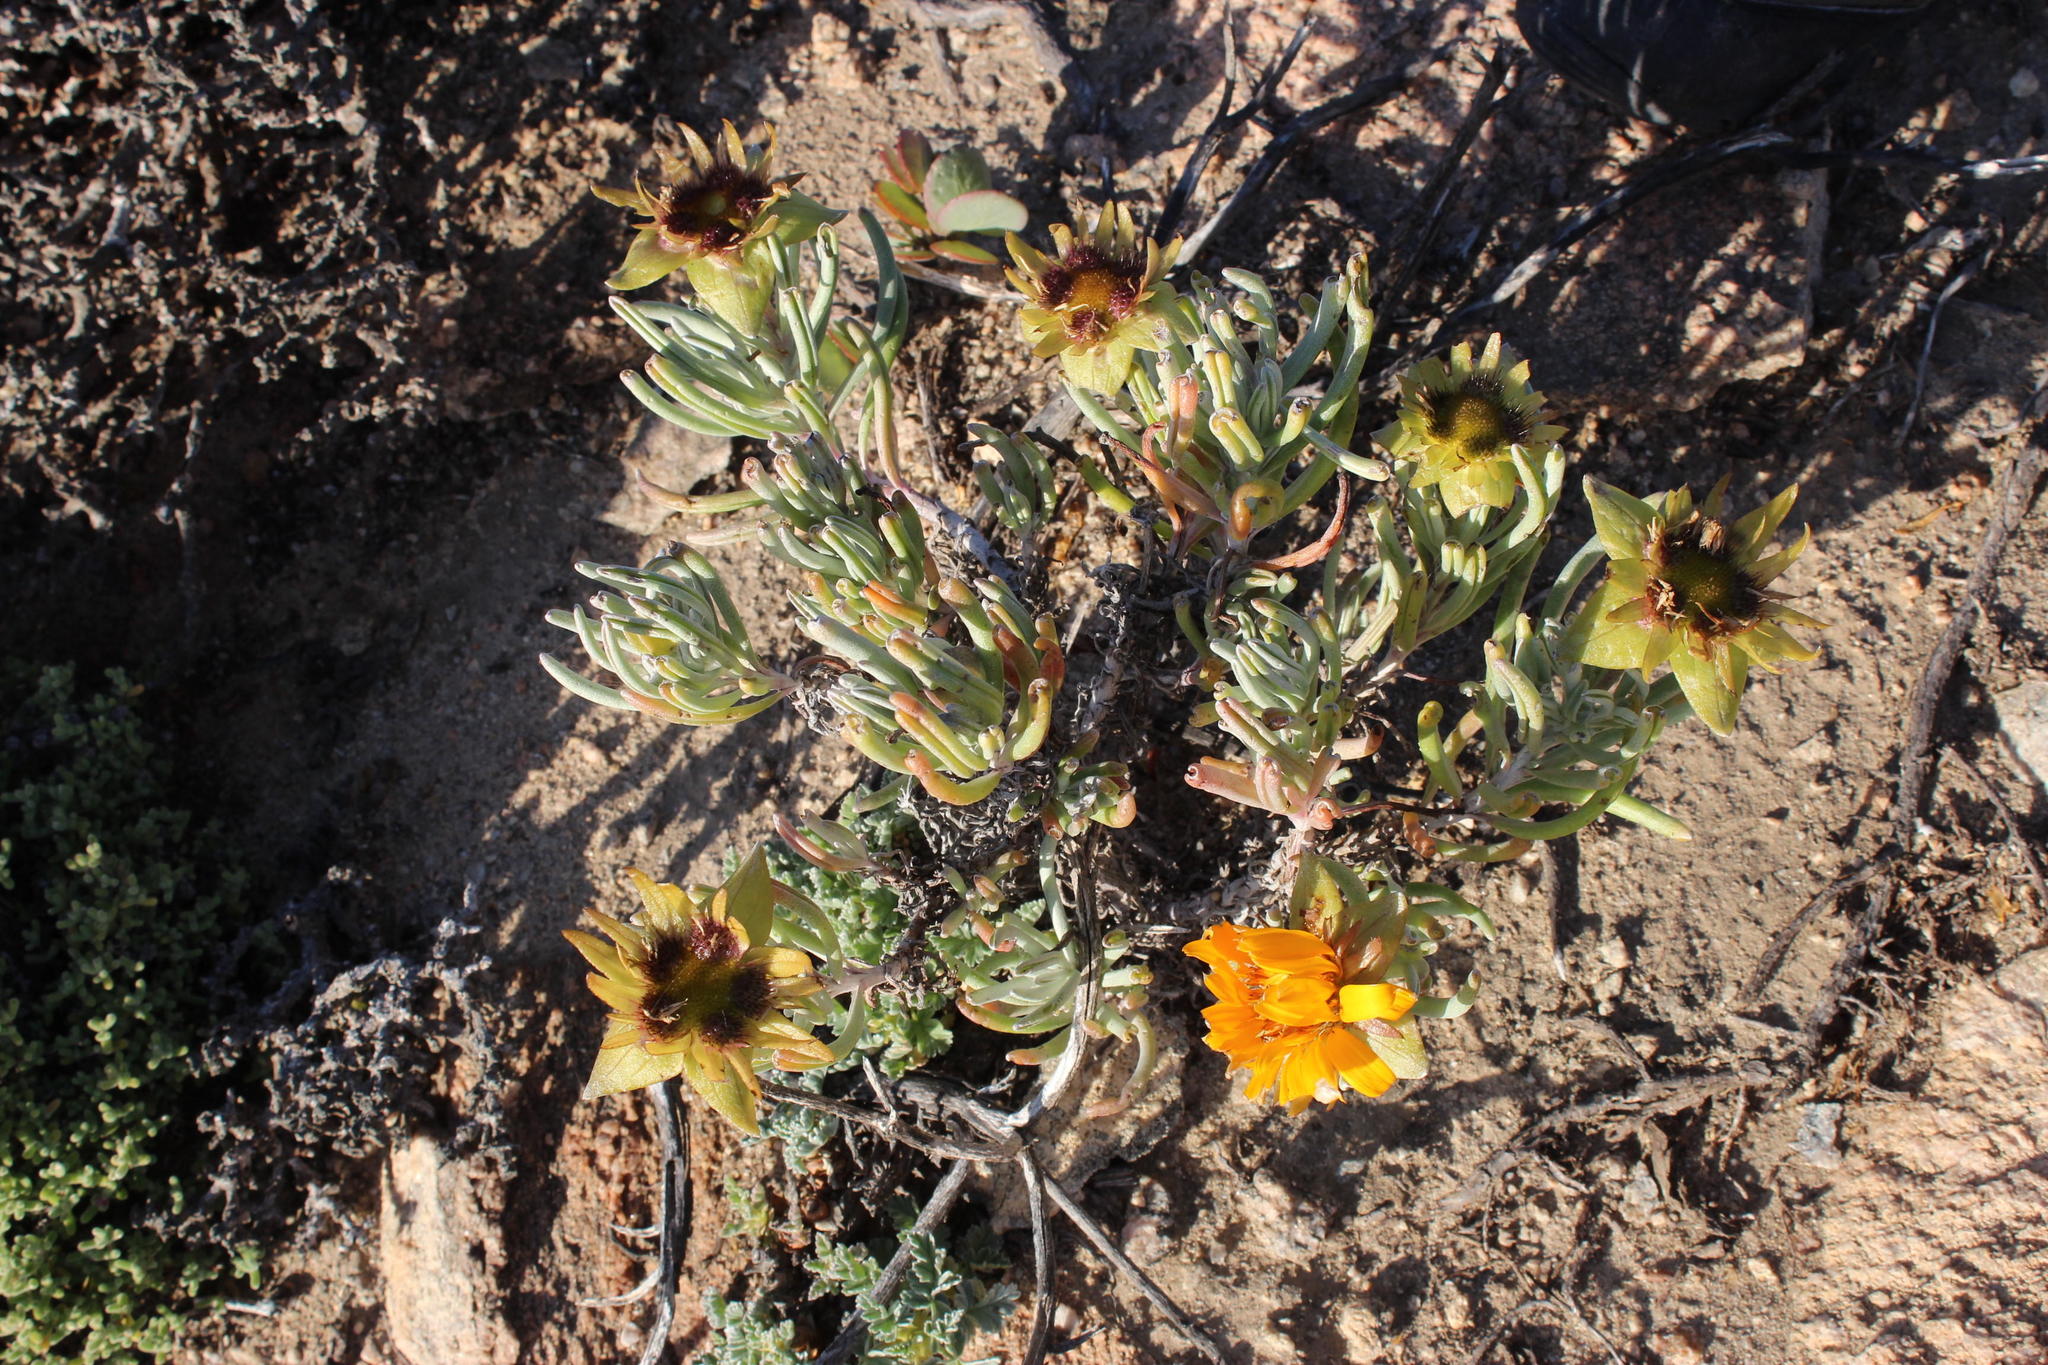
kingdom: Plantae
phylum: Tracheophyta
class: Magnoliopsida
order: Asterales
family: Asteraceae
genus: Didelta
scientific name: Didelta carnosa
